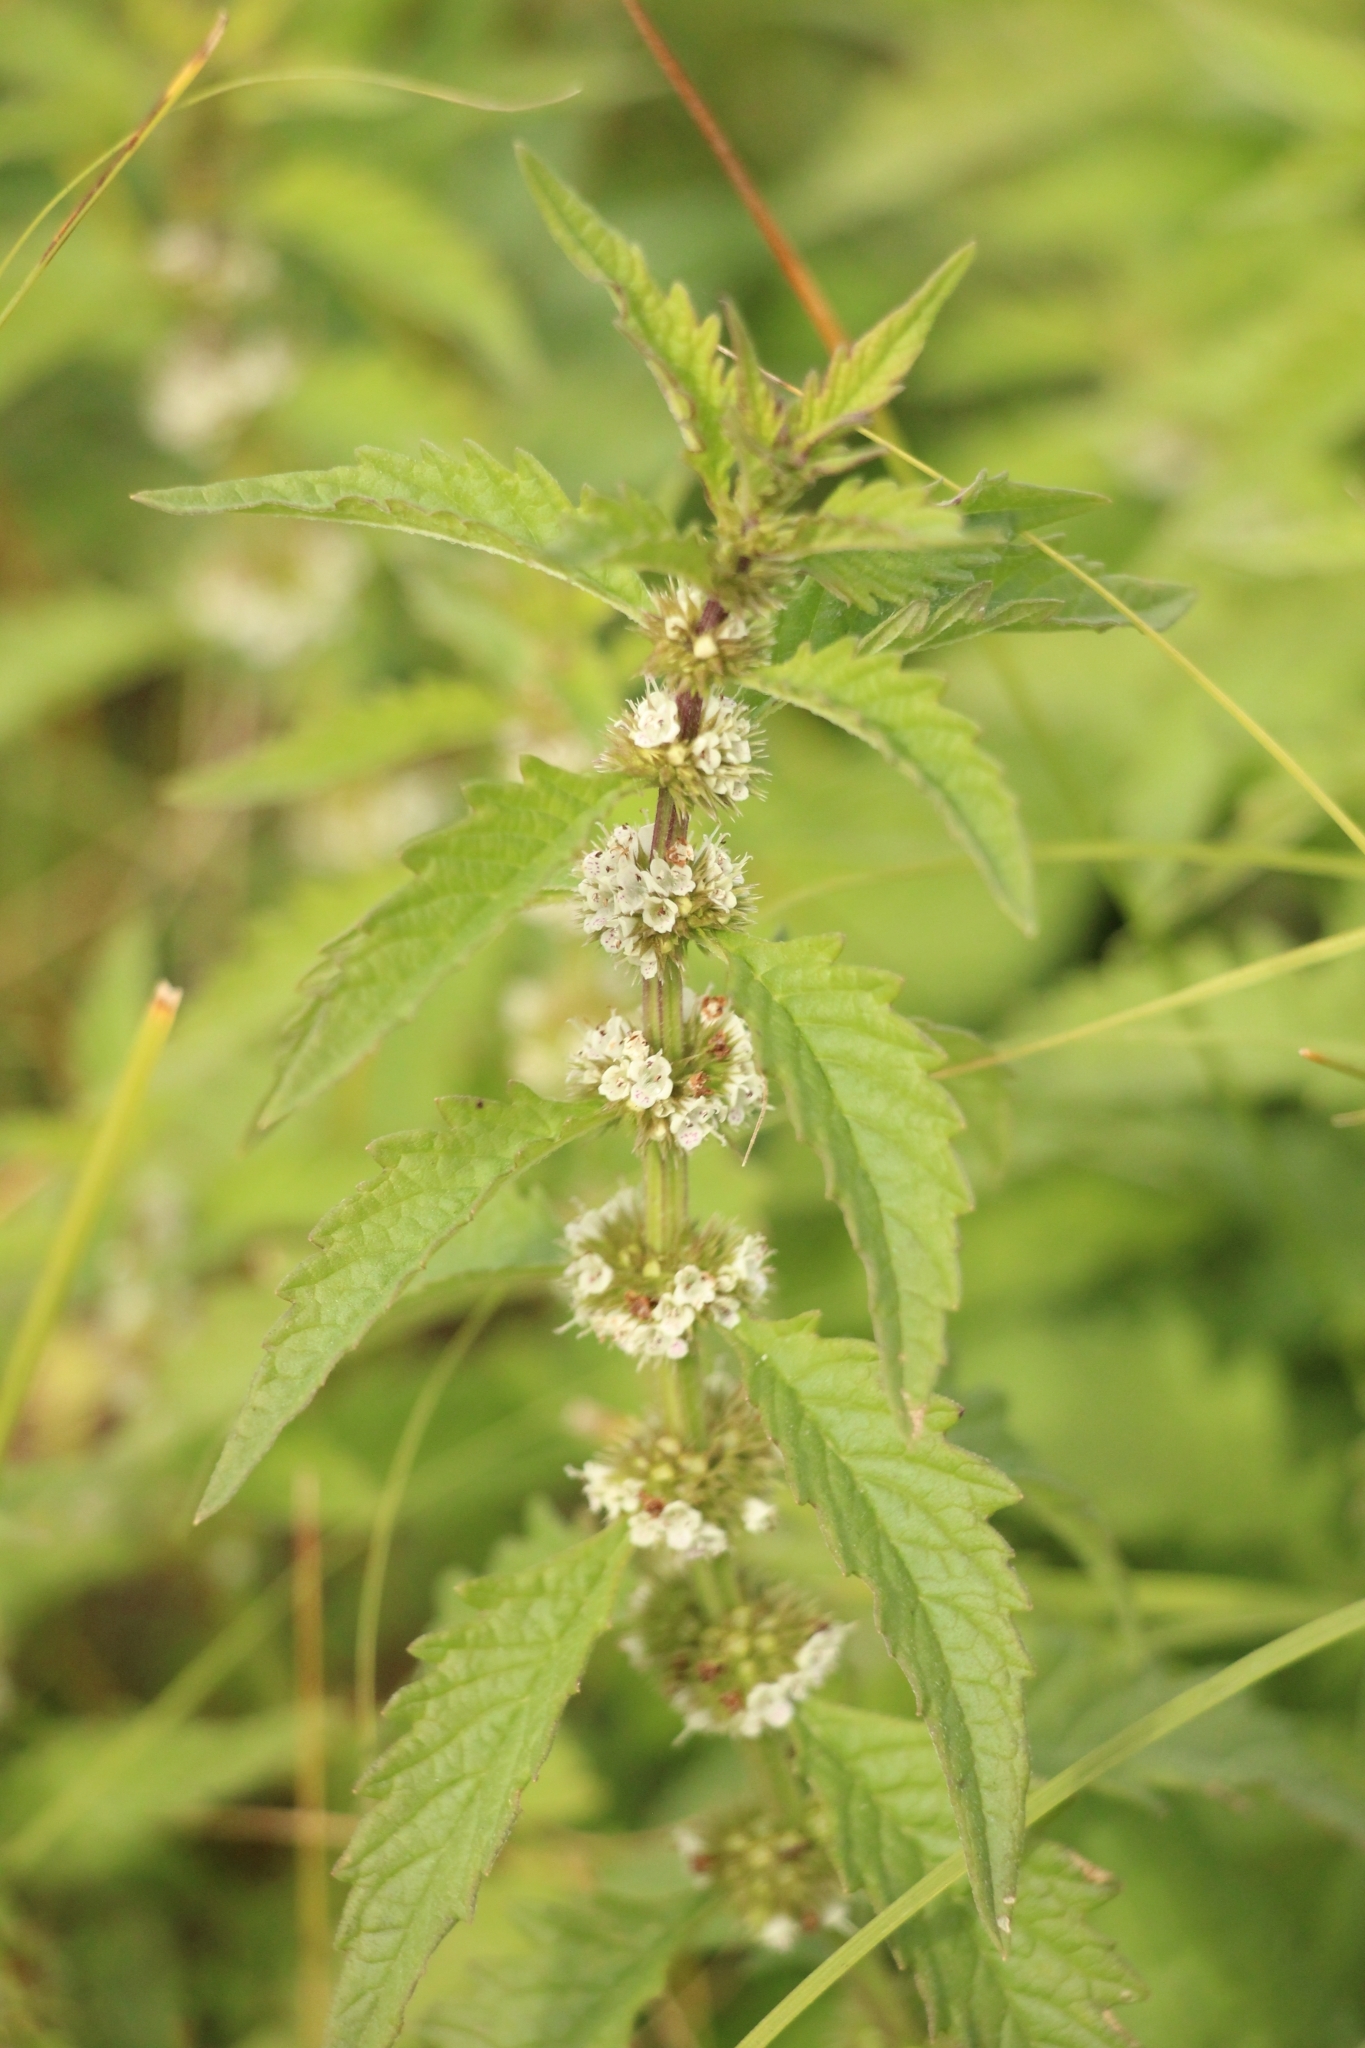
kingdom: Plantae
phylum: Tracheophyta
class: Magnoliopsida
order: Lamiales
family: Lamiaceae
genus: Lycopus
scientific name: Lycopus europaeus
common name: European bugleweed
